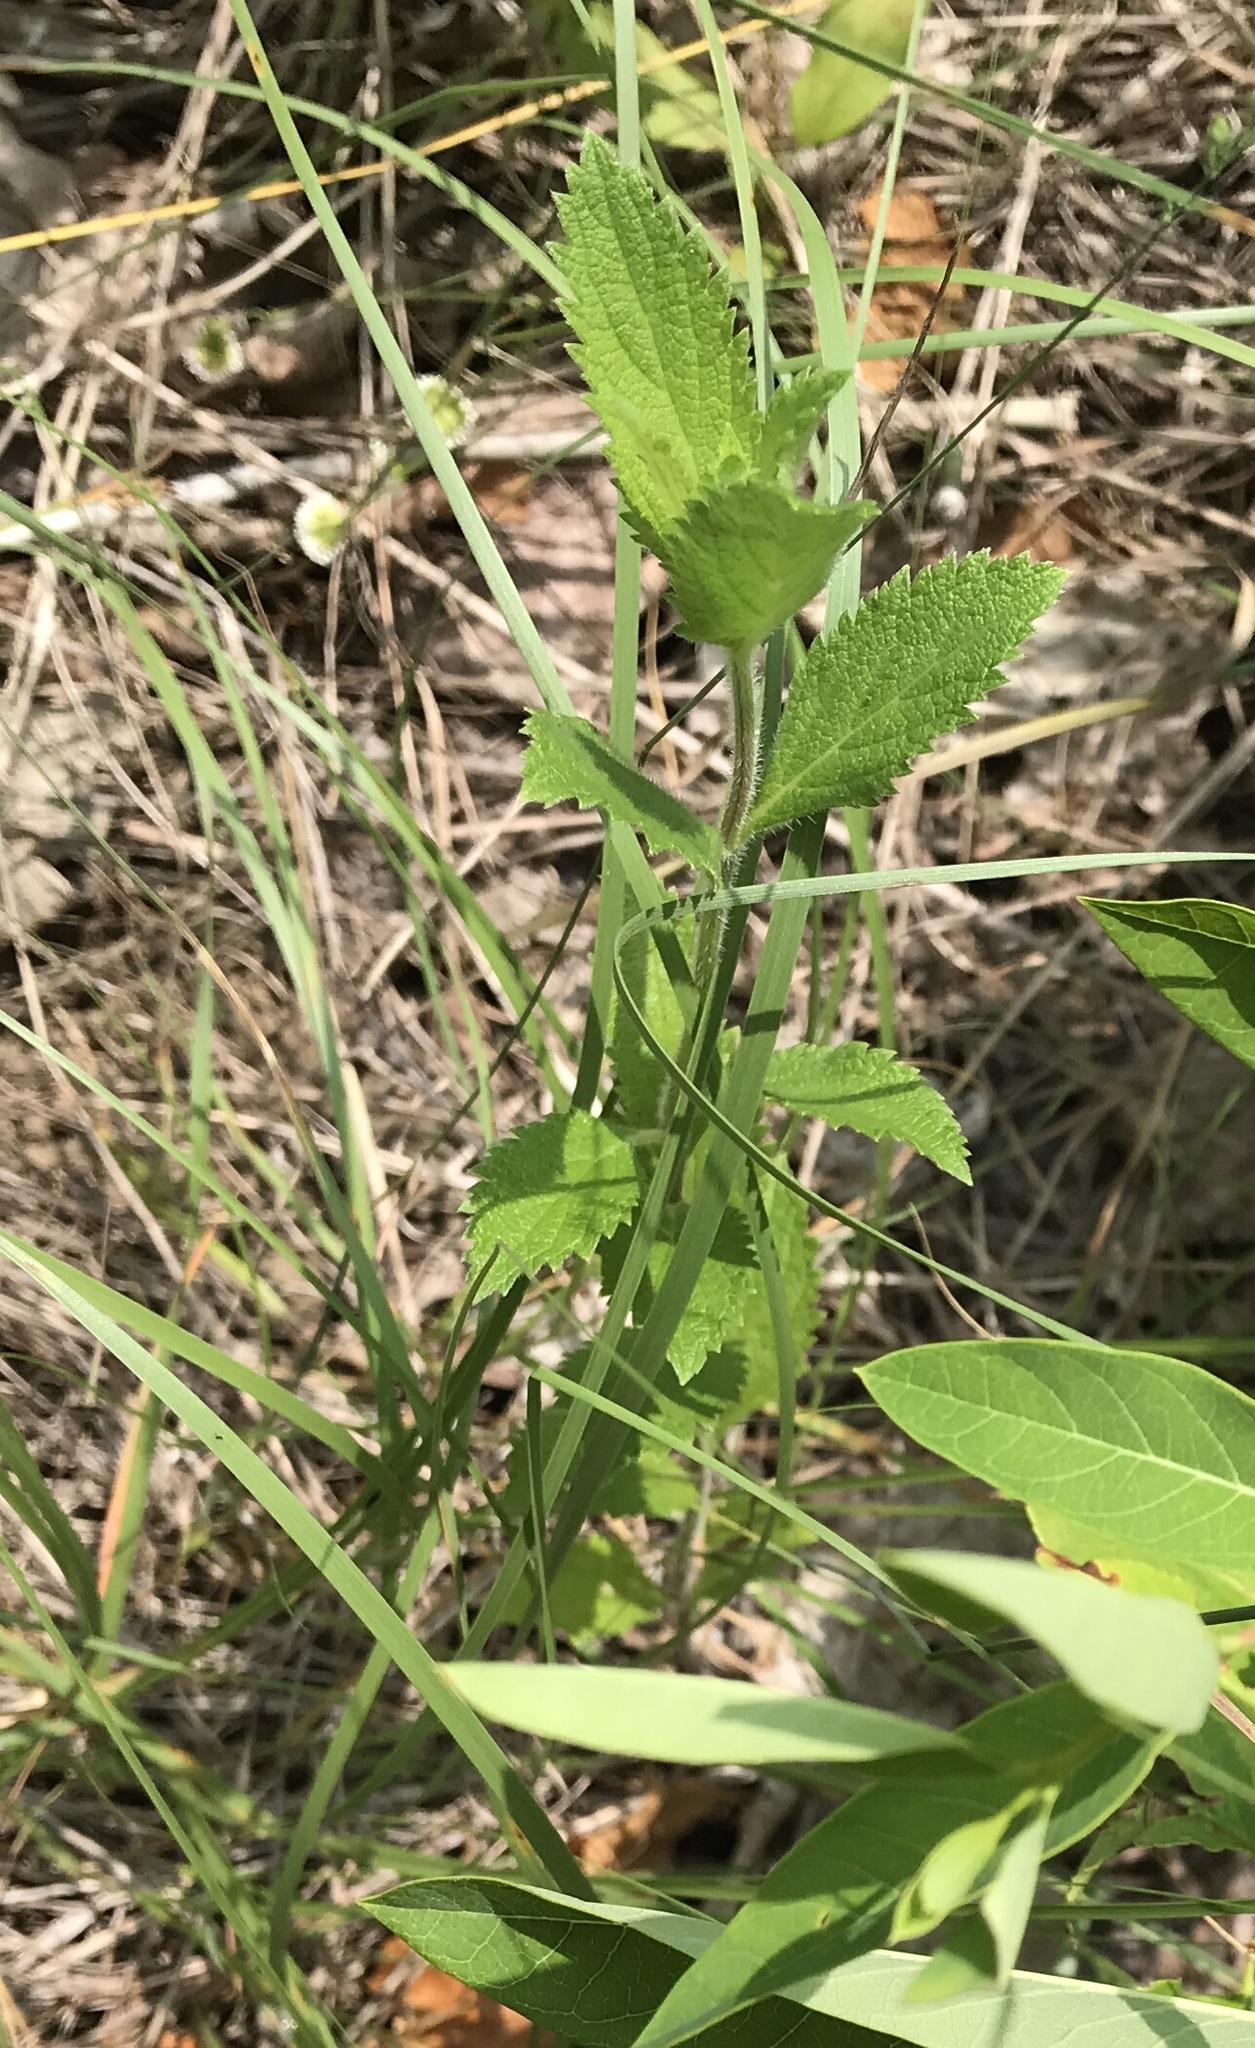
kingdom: Plantae
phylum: Tracheophyta
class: Magnoliopsida
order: Lamiales
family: Verbenaceae
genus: Verbena
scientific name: Verbena stricta
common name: Hoary vervain
